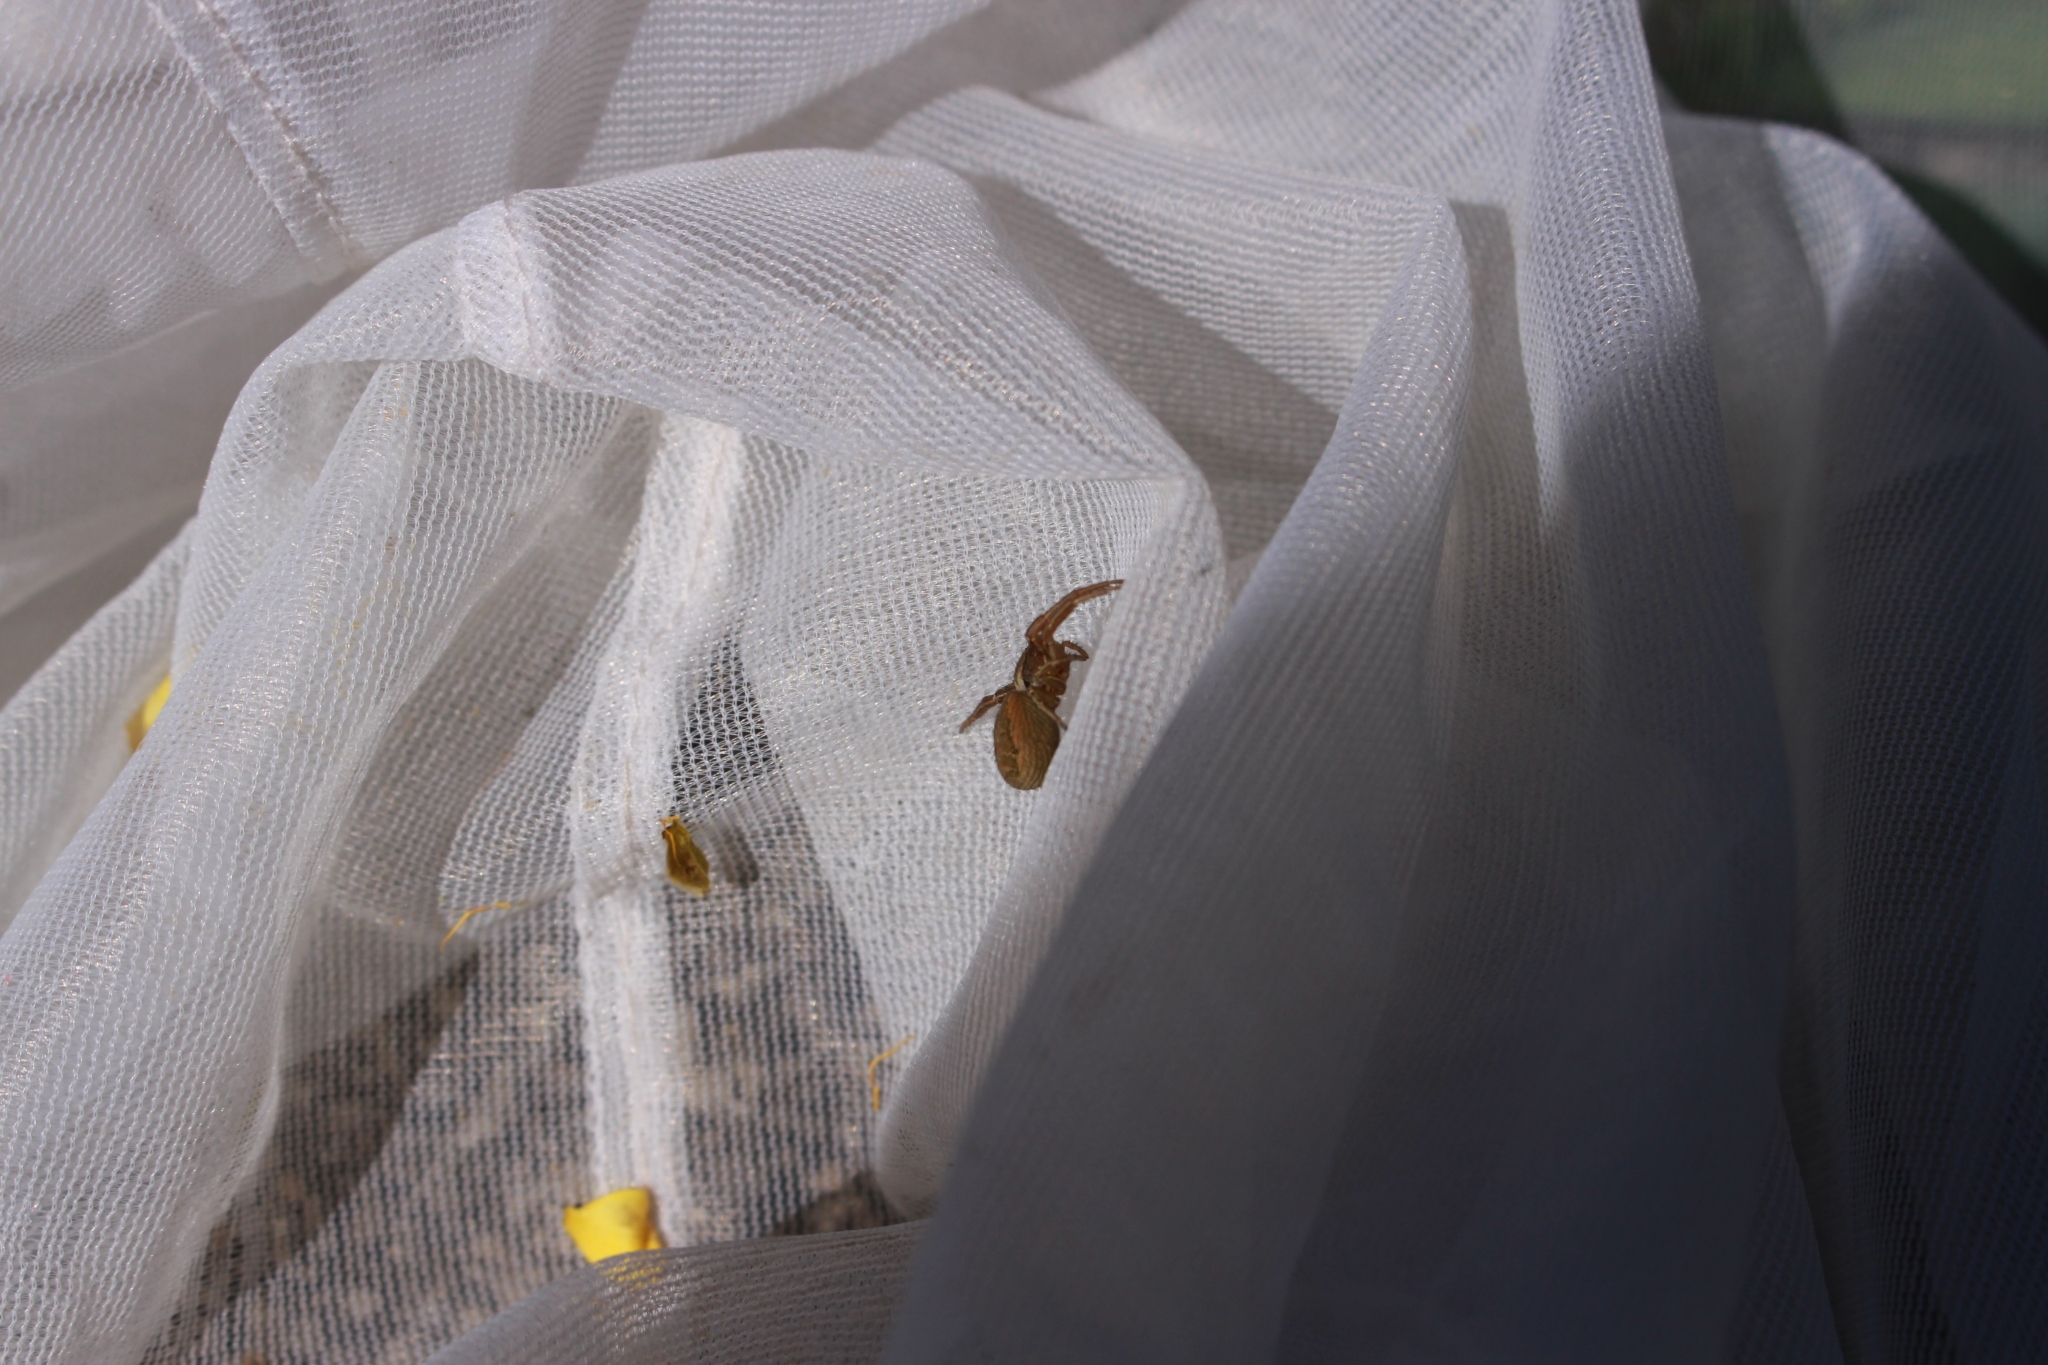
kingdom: Animalia
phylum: Arthropoda
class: Arachnida
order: Araneae
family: Thomisidae
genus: Xysticus
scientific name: Xysticus
